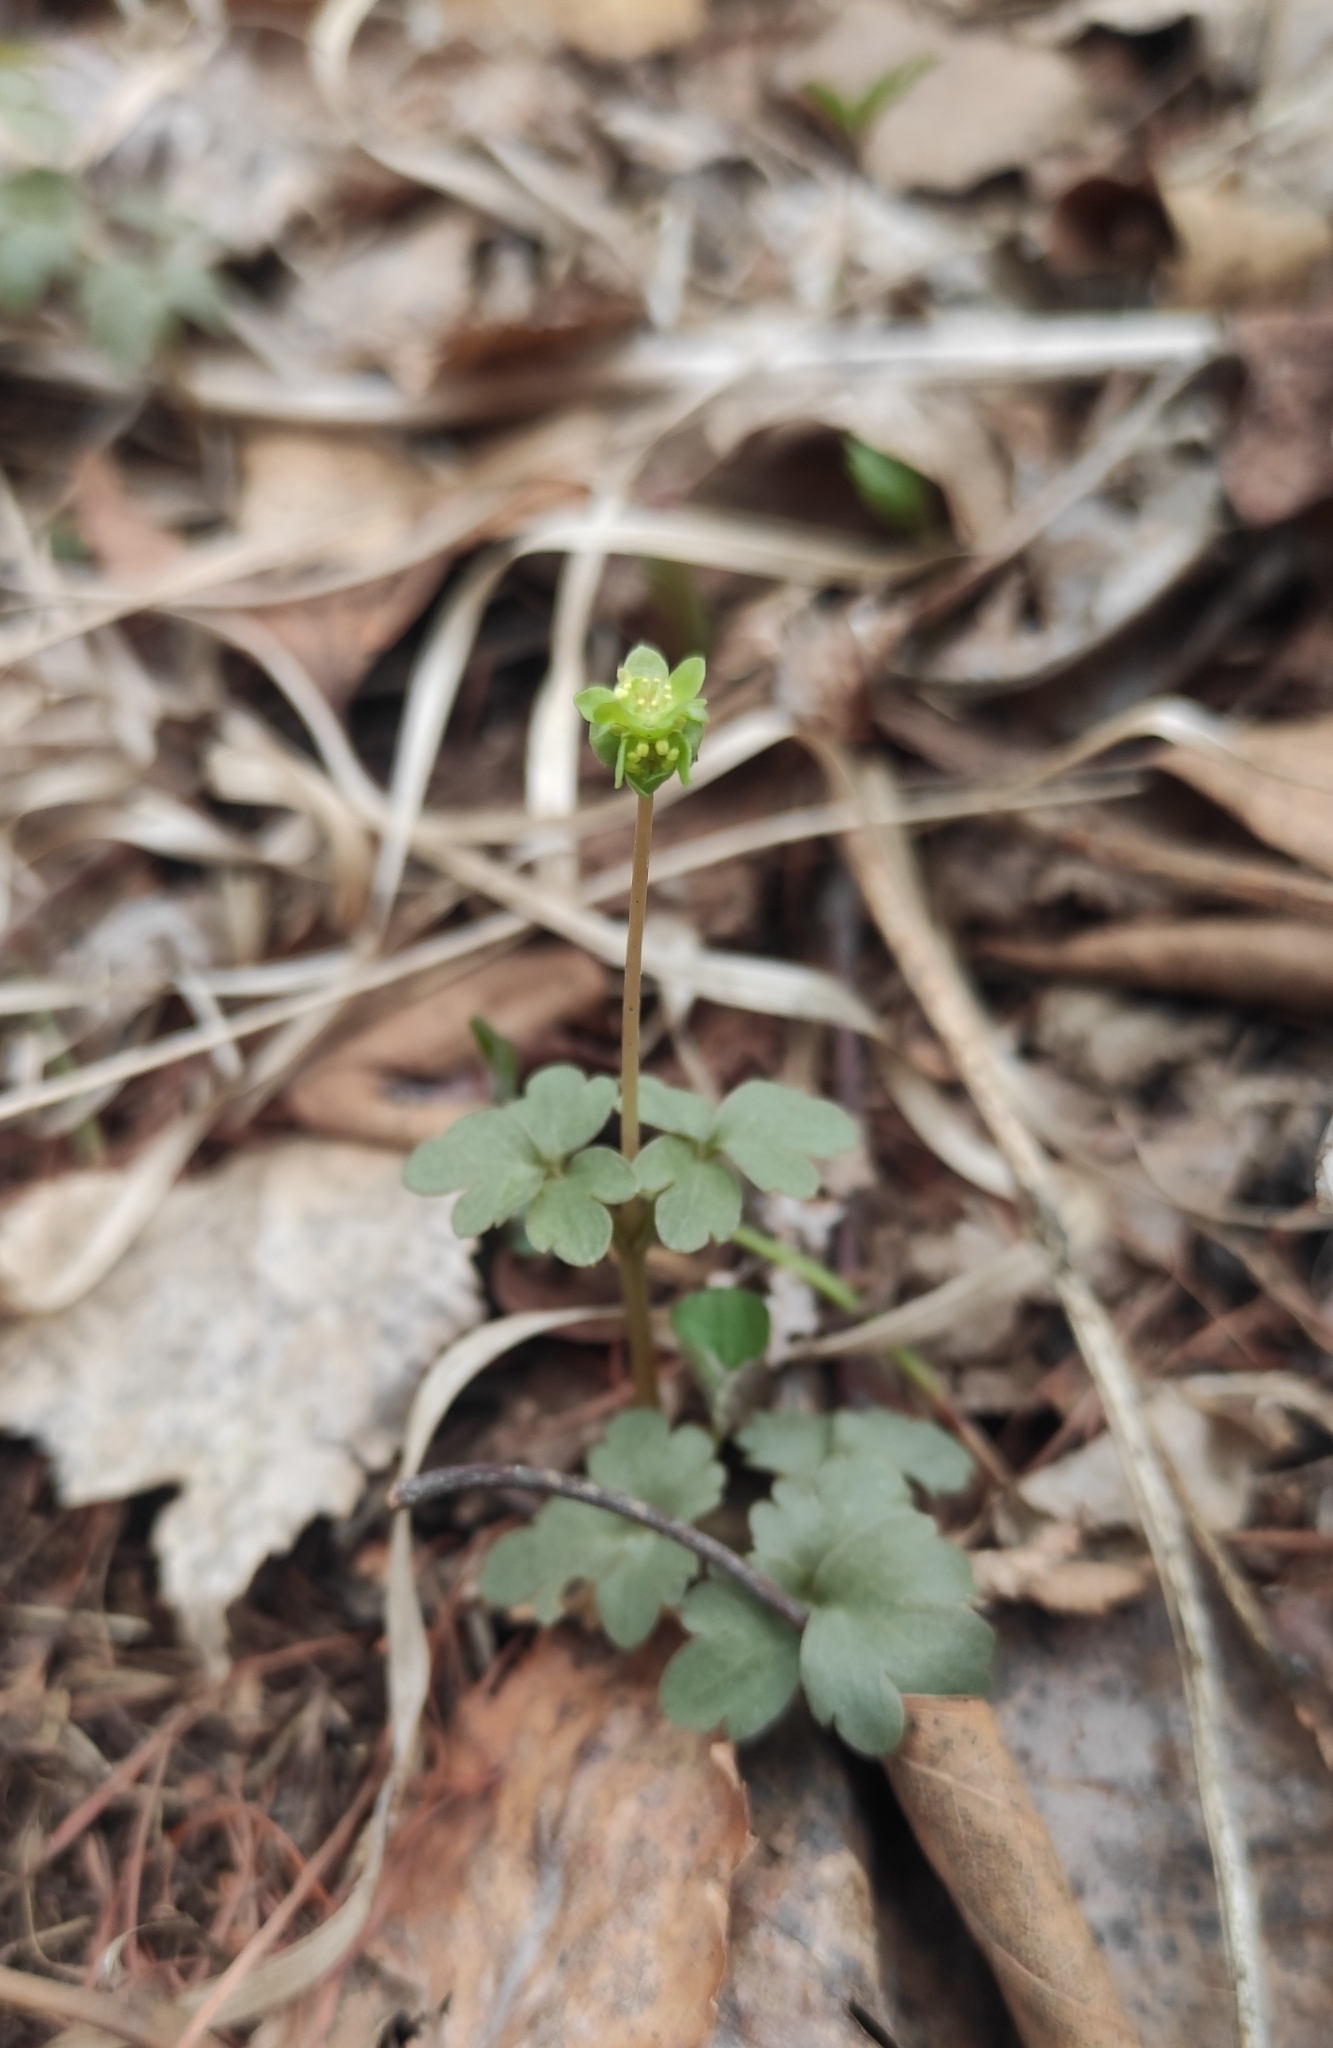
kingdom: Plantae
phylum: Tracheophyta
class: Magnoliopsida
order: Dipsacales
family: Viburnaceae
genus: Adoxa
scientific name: Adoxa moschatellina
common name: Moschatel
